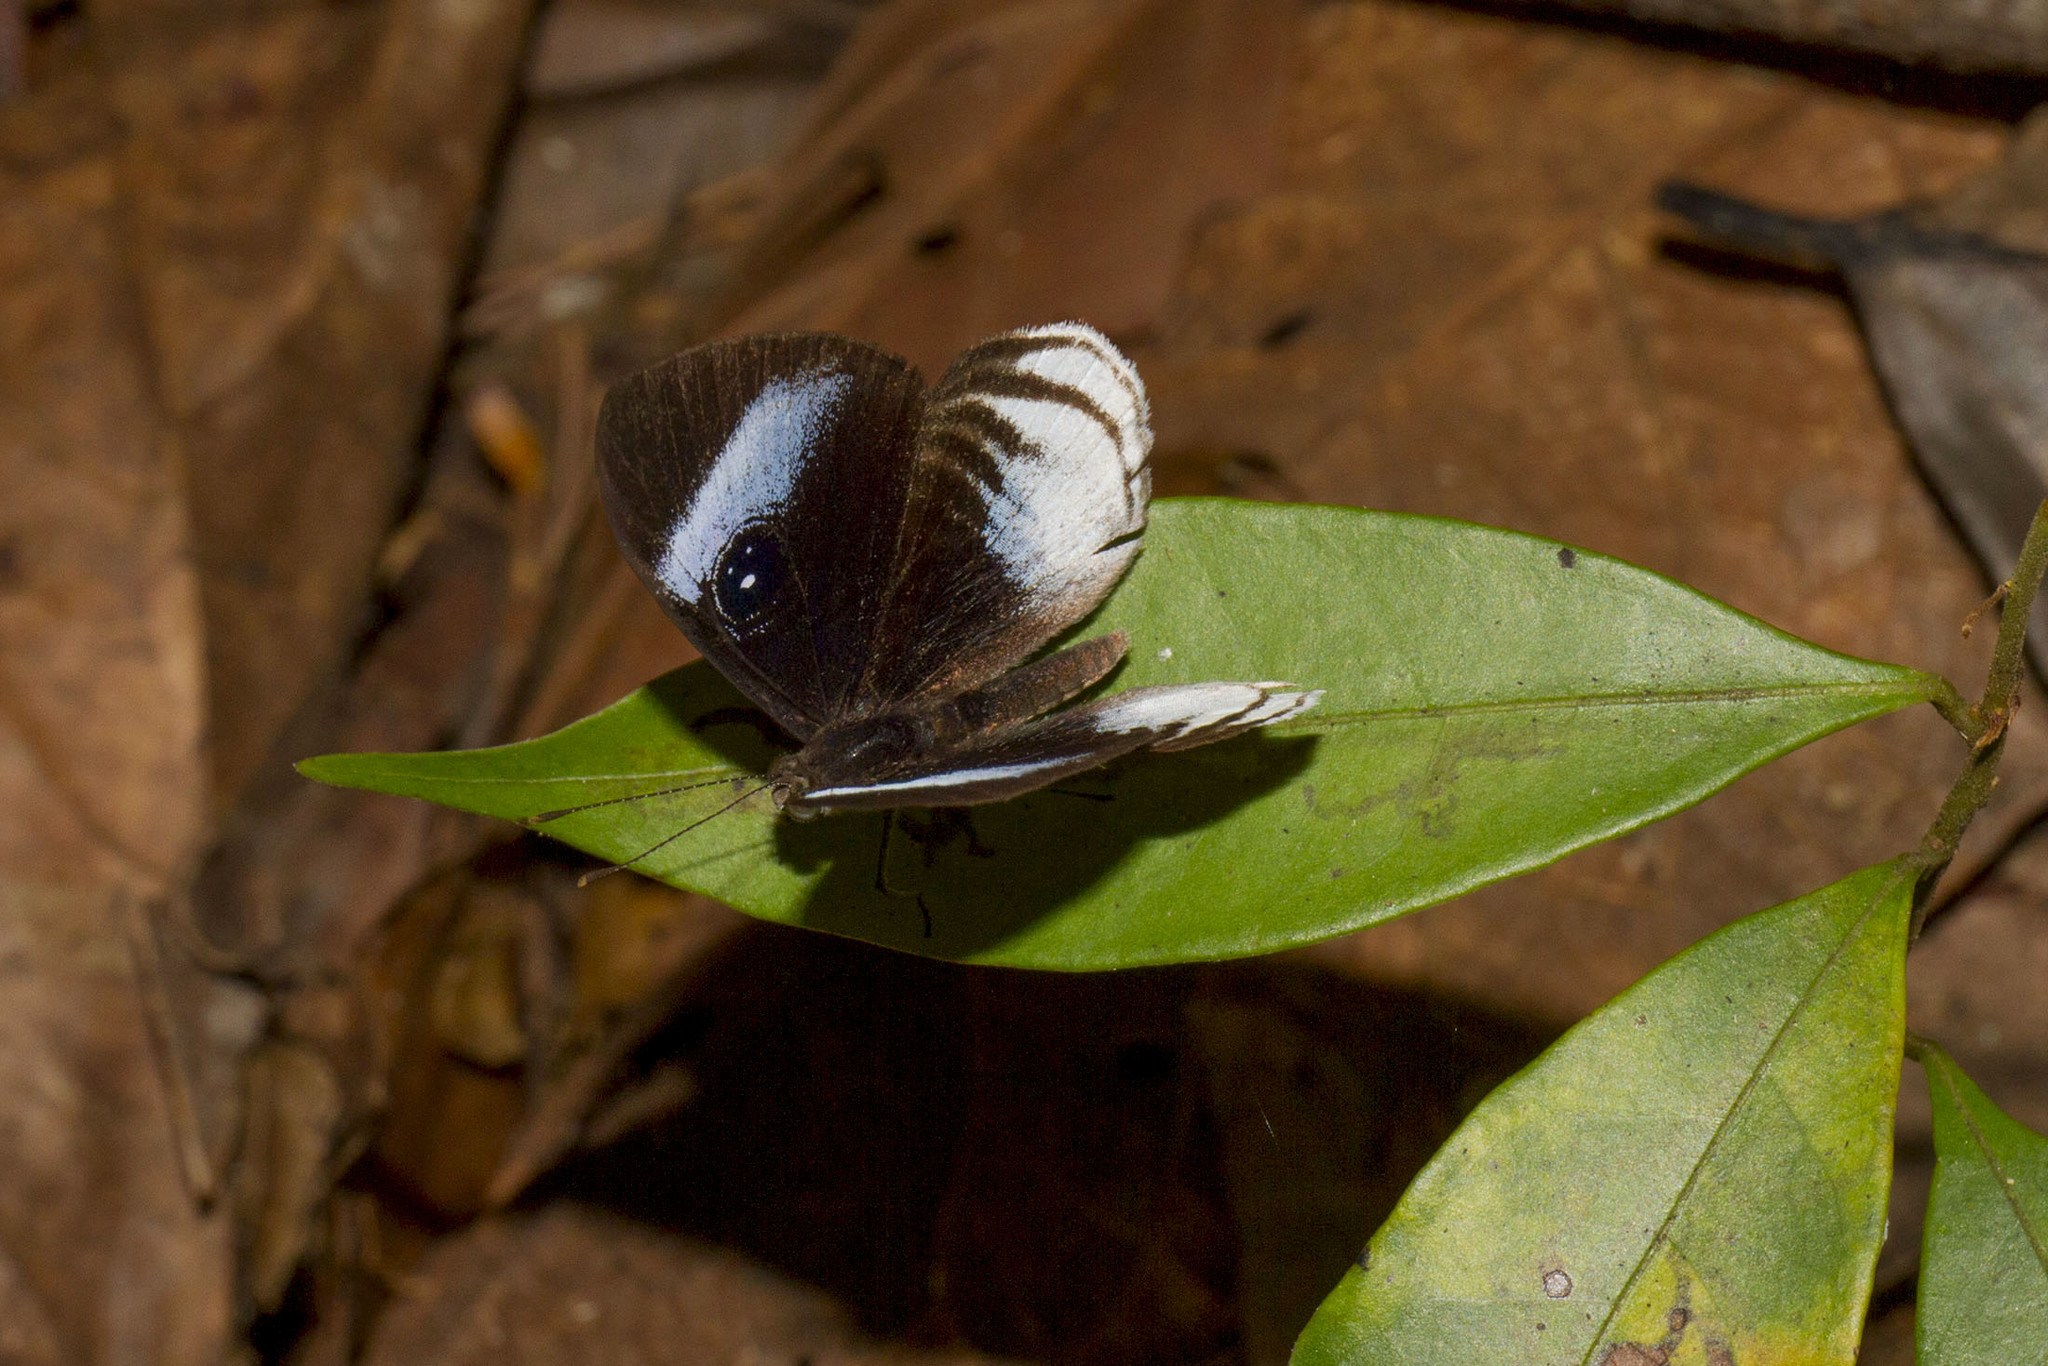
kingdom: Animalia
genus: Mesosemia
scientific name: Mesosemia philocles
